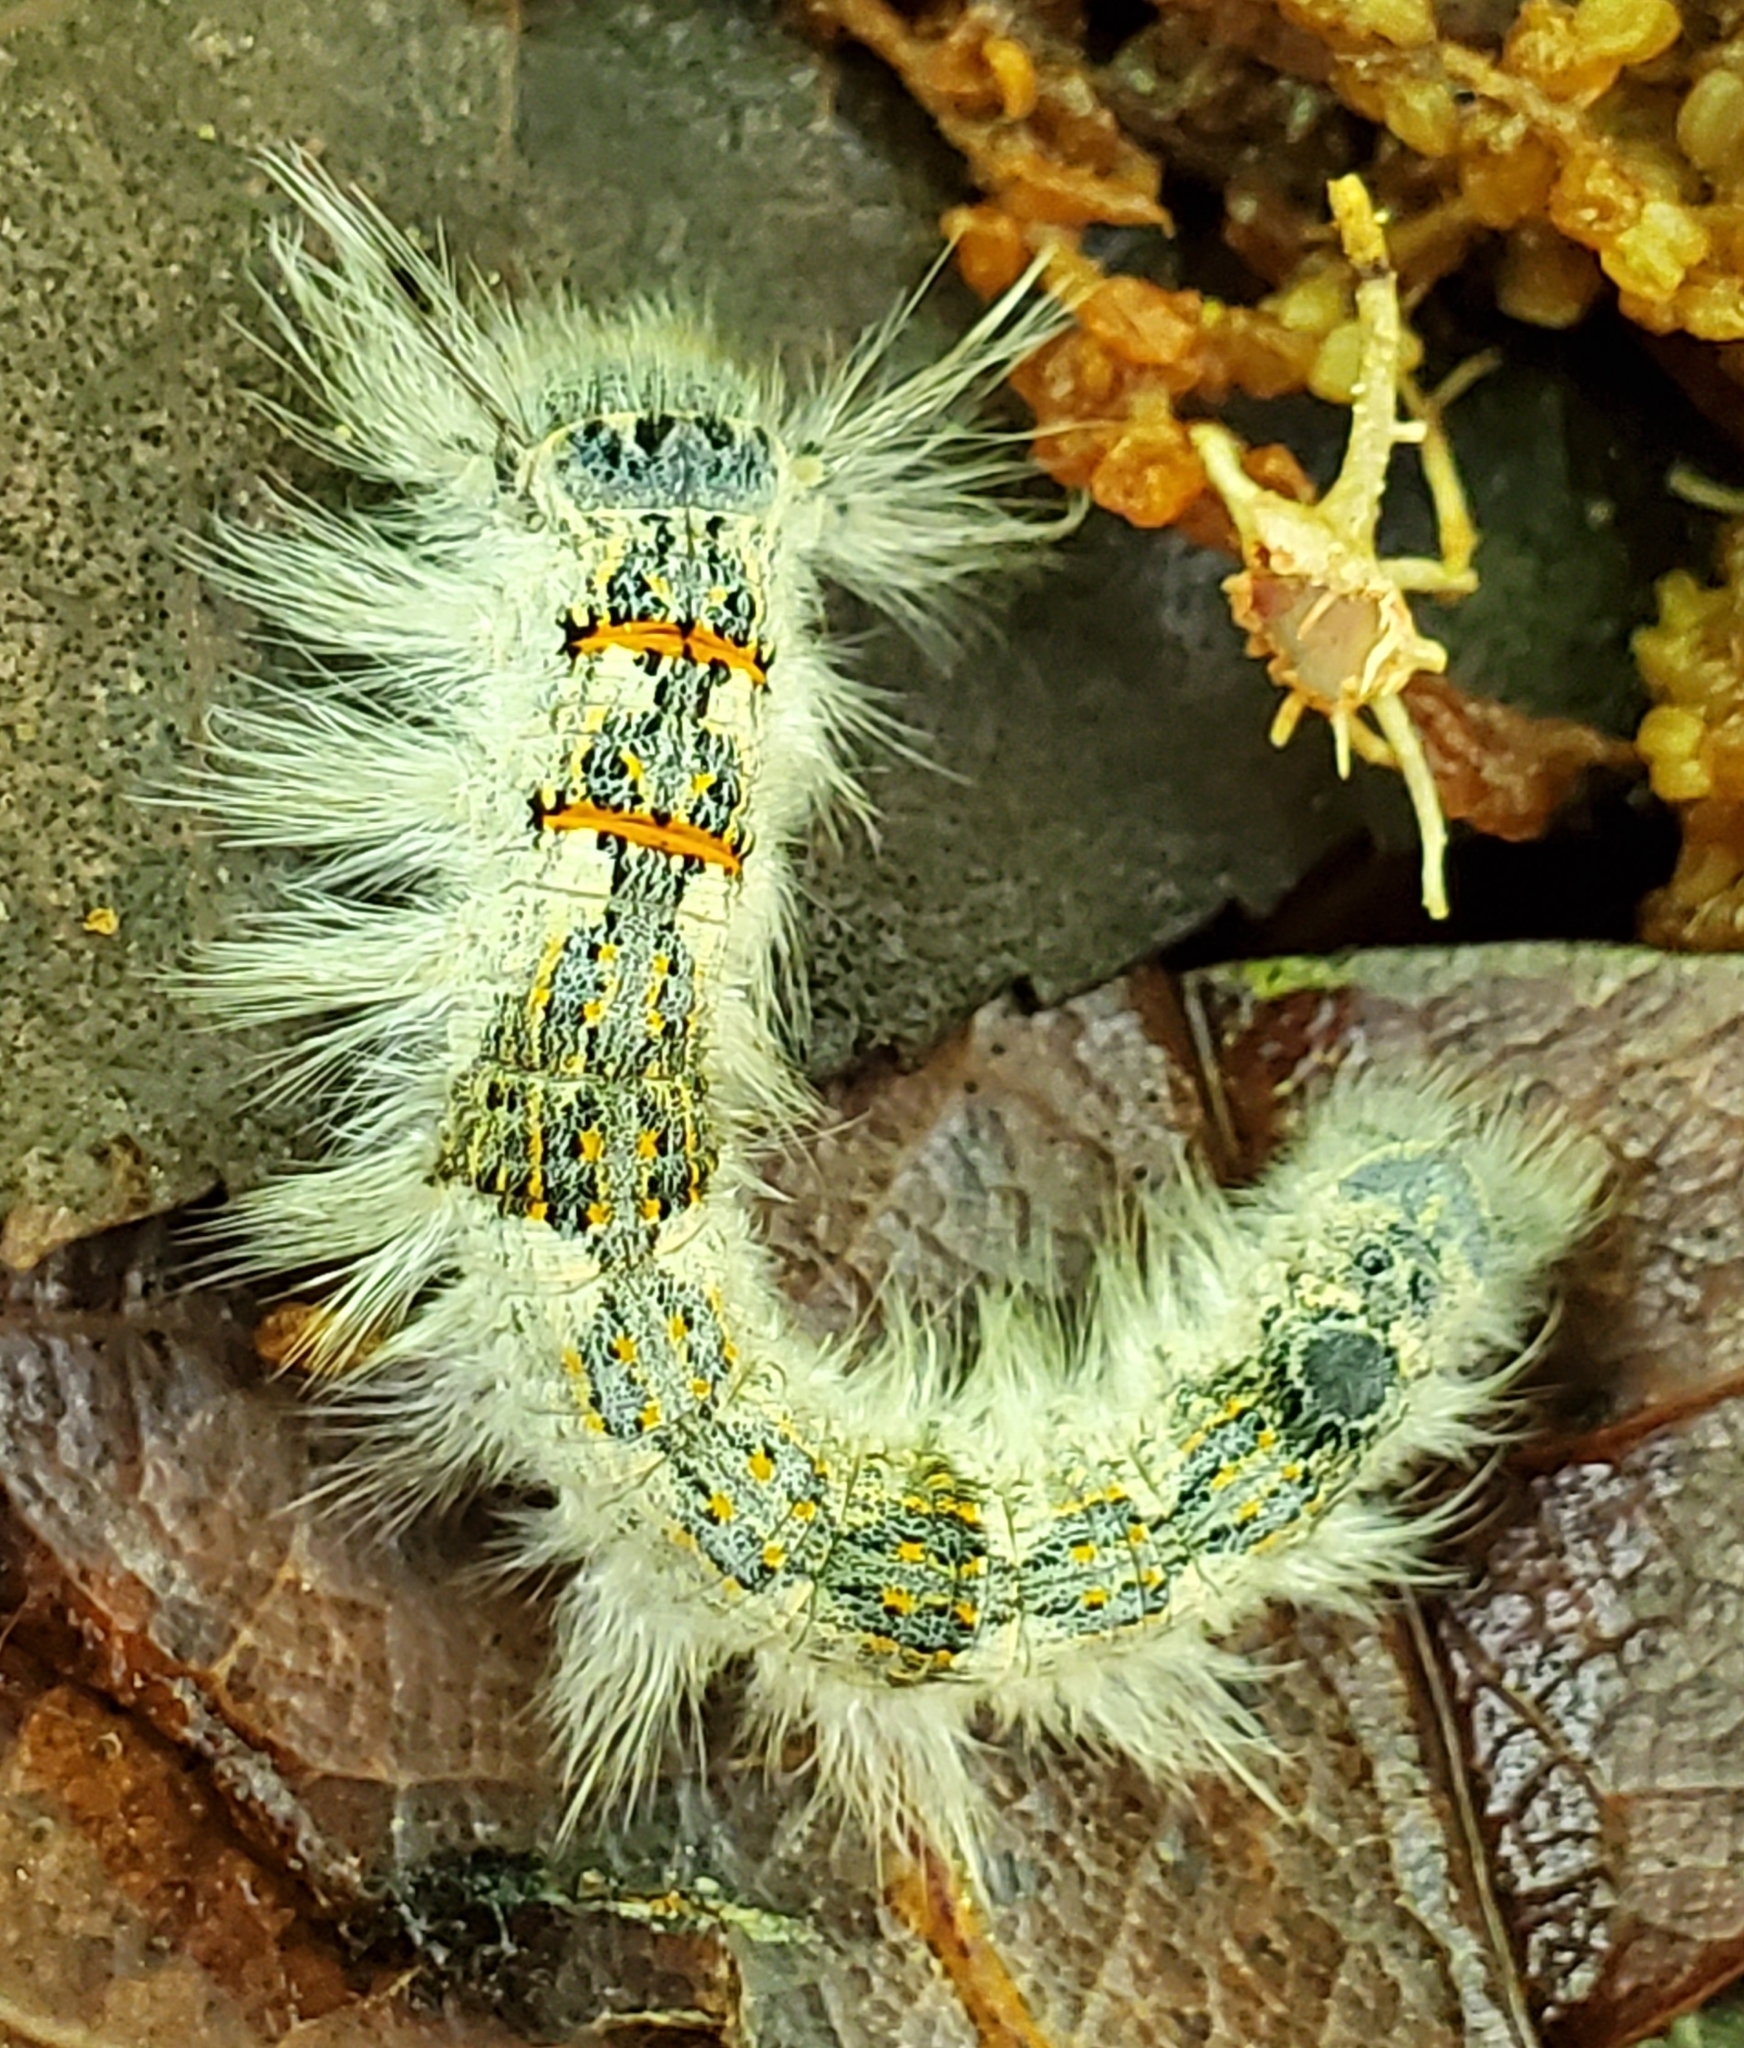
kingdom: Animalia
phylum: Arthropoda
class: Insecta
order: Lepidoptera
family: Lasiocampidae
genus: Phyllodesma
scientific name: Phyllodesma americana
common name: American lappet moth
